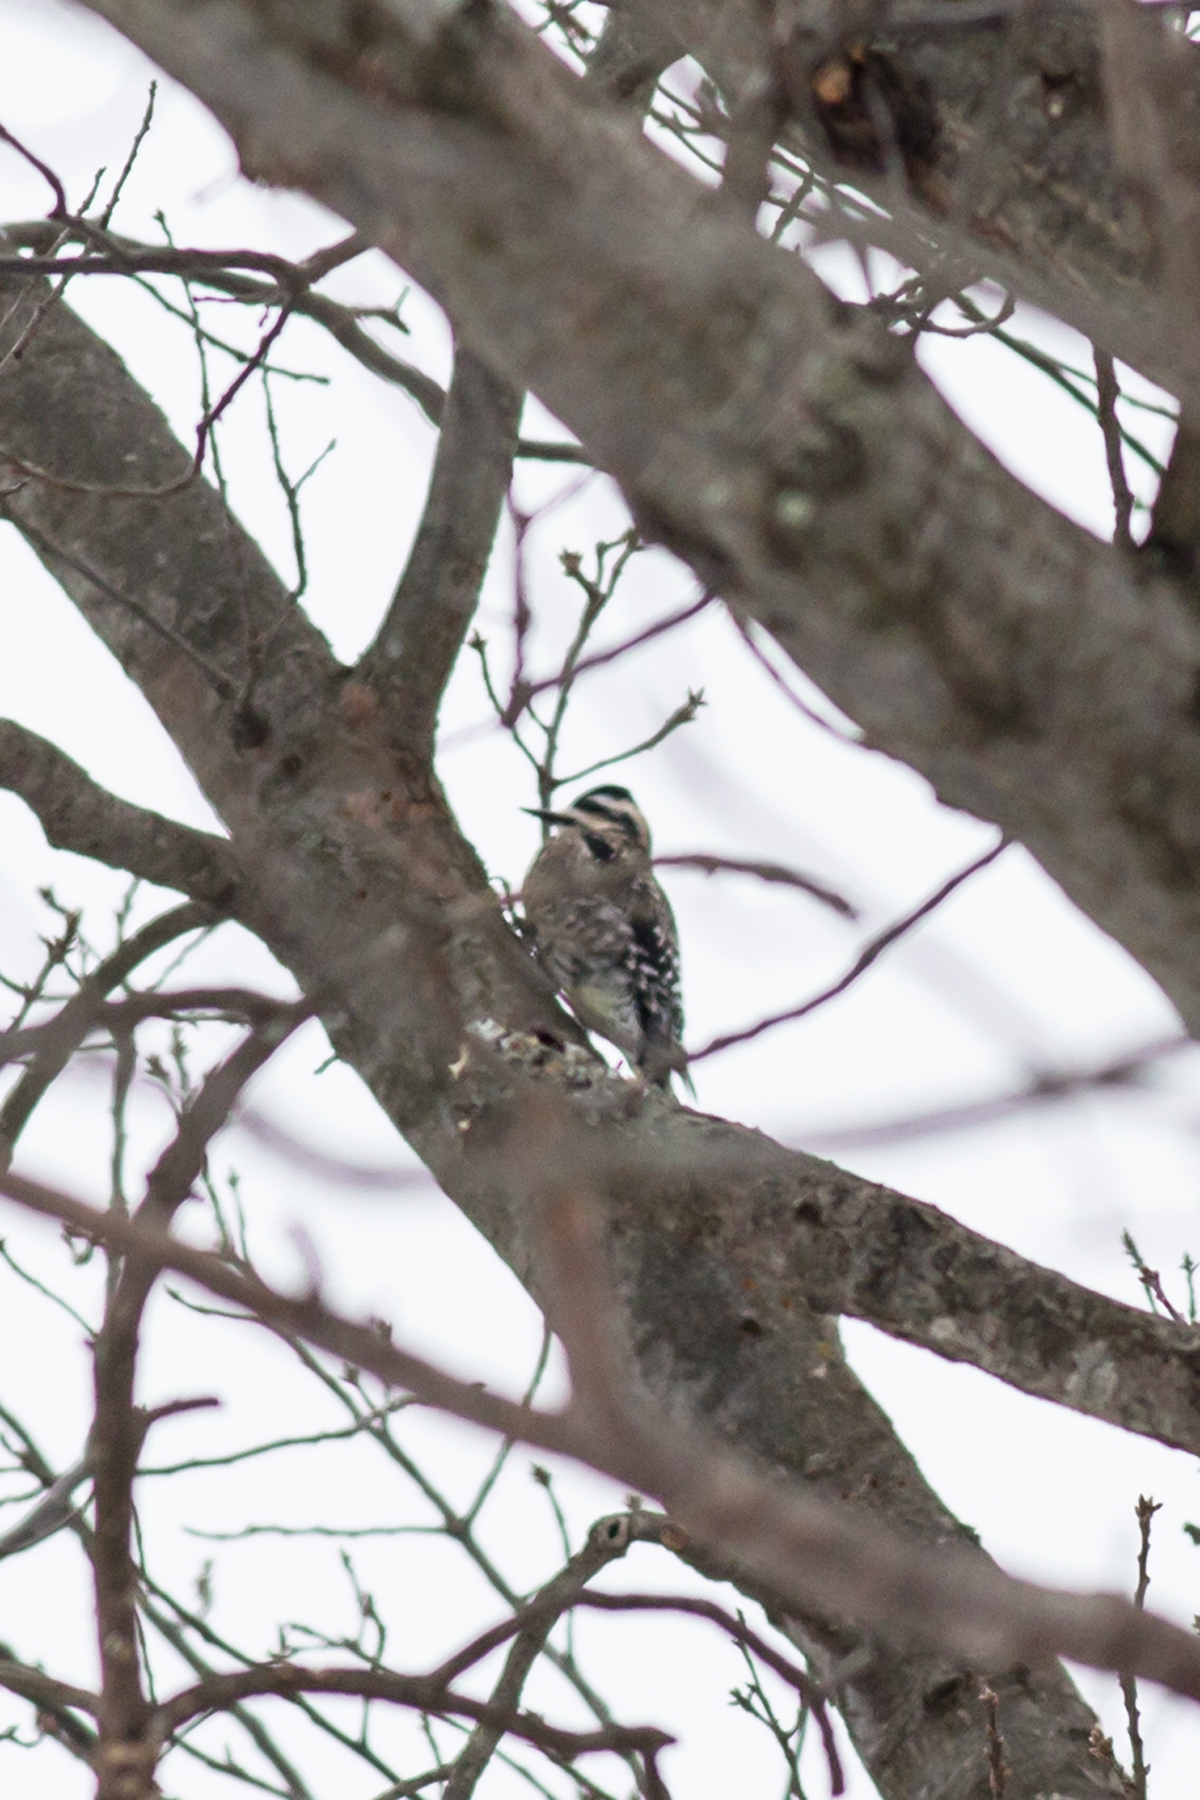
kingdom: Animalia
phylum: Chordata
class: Aves
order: Piciformes
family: Picidae
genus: Sphyrapicus
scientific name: Sphyrapicus varius
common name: Yellow-bellied sapsucker
